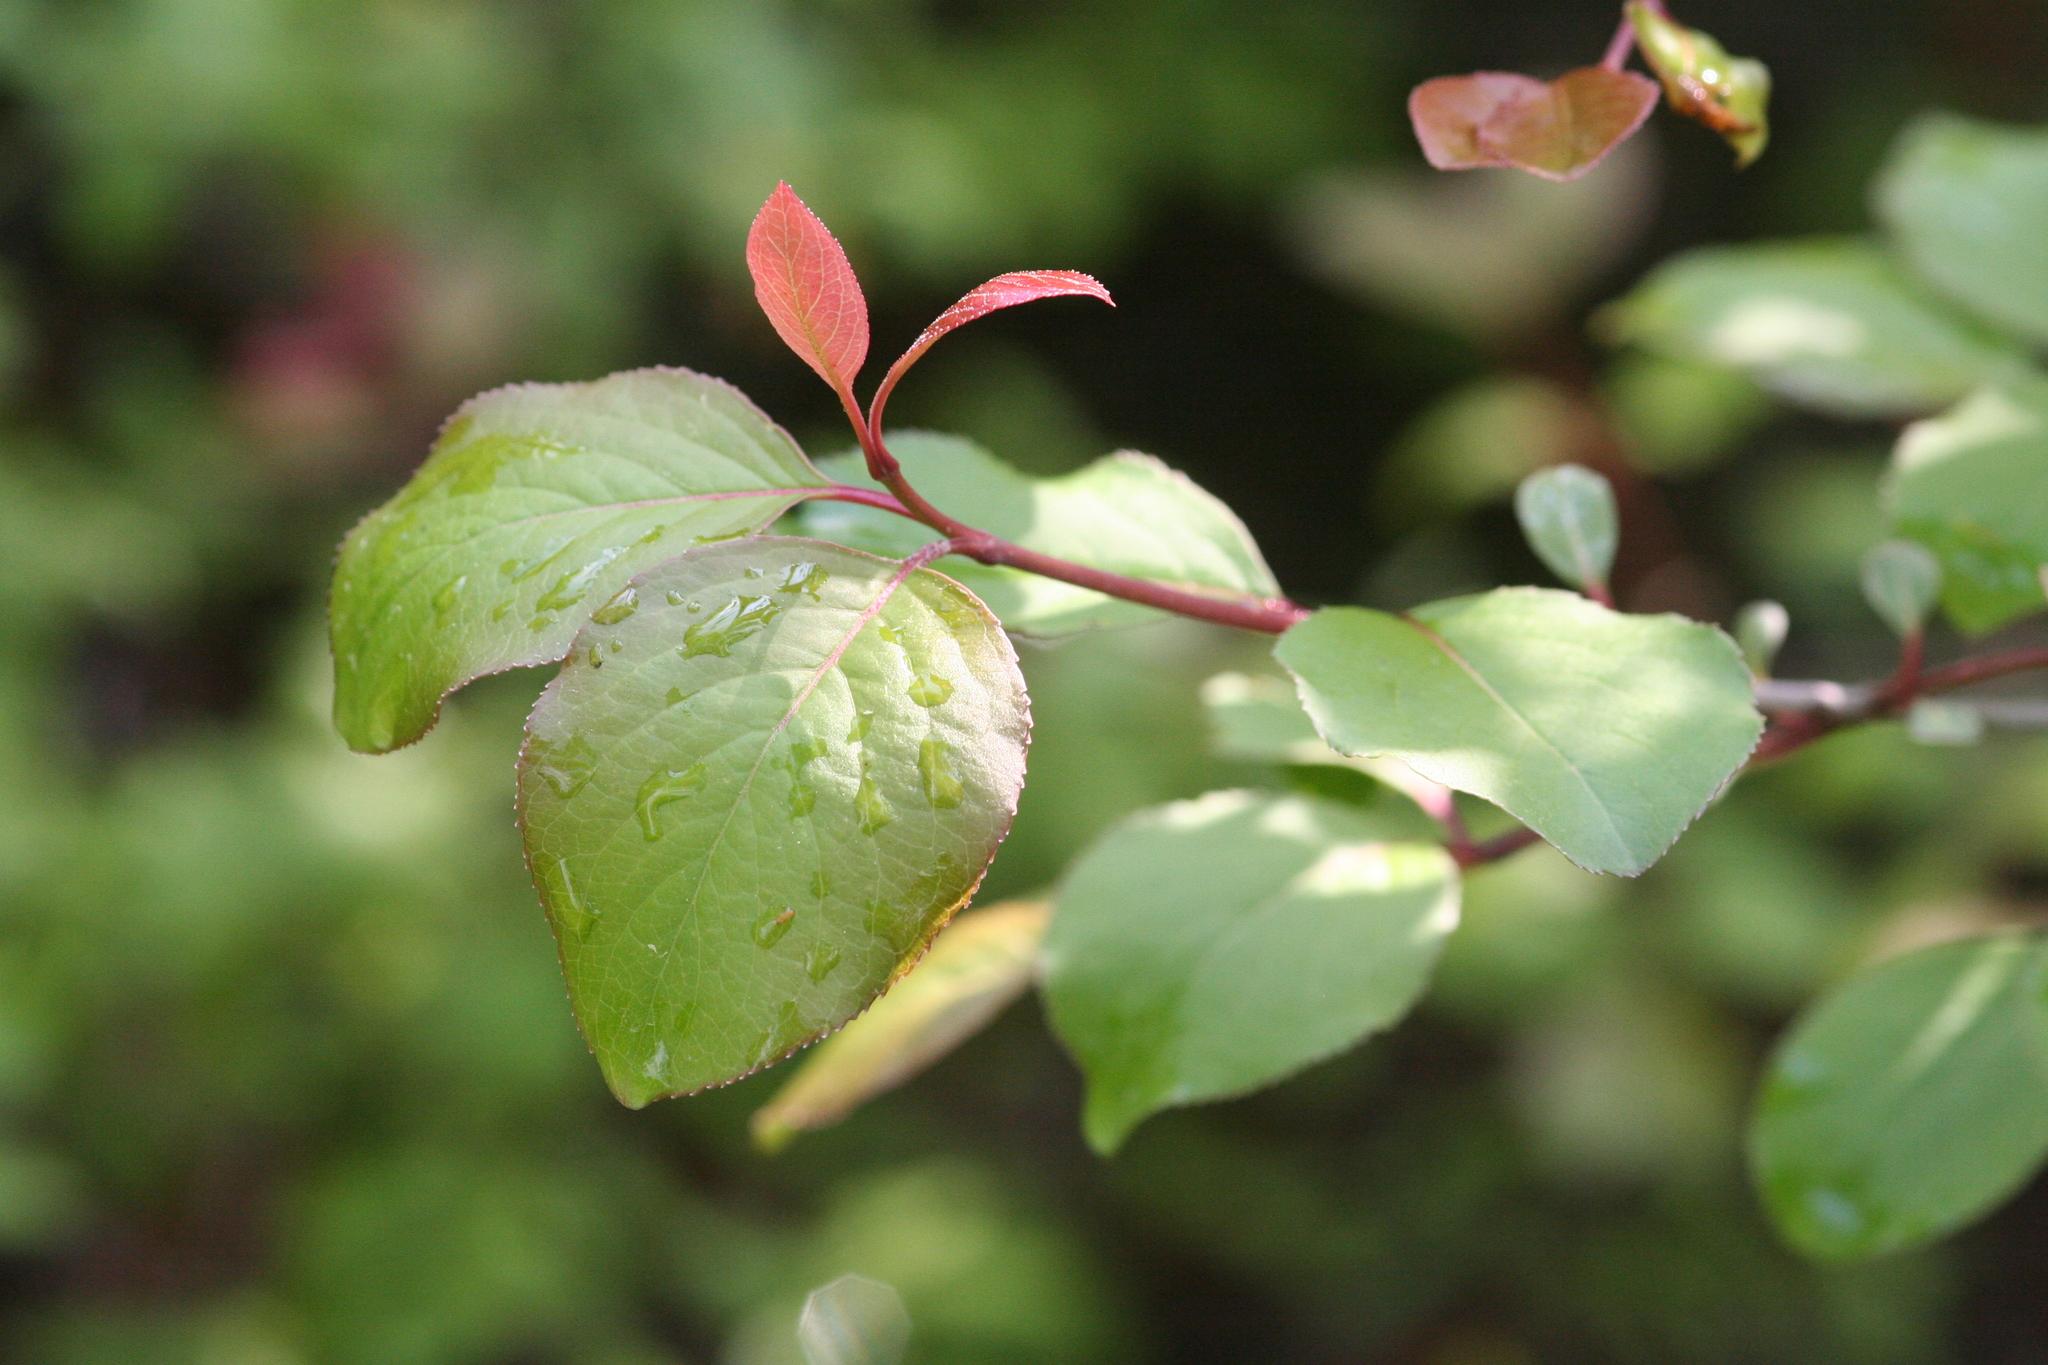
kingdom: Plantae
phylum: Tracheophyta
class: Magnoliopsida
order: Dipsacales
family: Viburnaceae
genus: Viburnum
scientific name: Viburnum prunifolium
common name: Black haw
